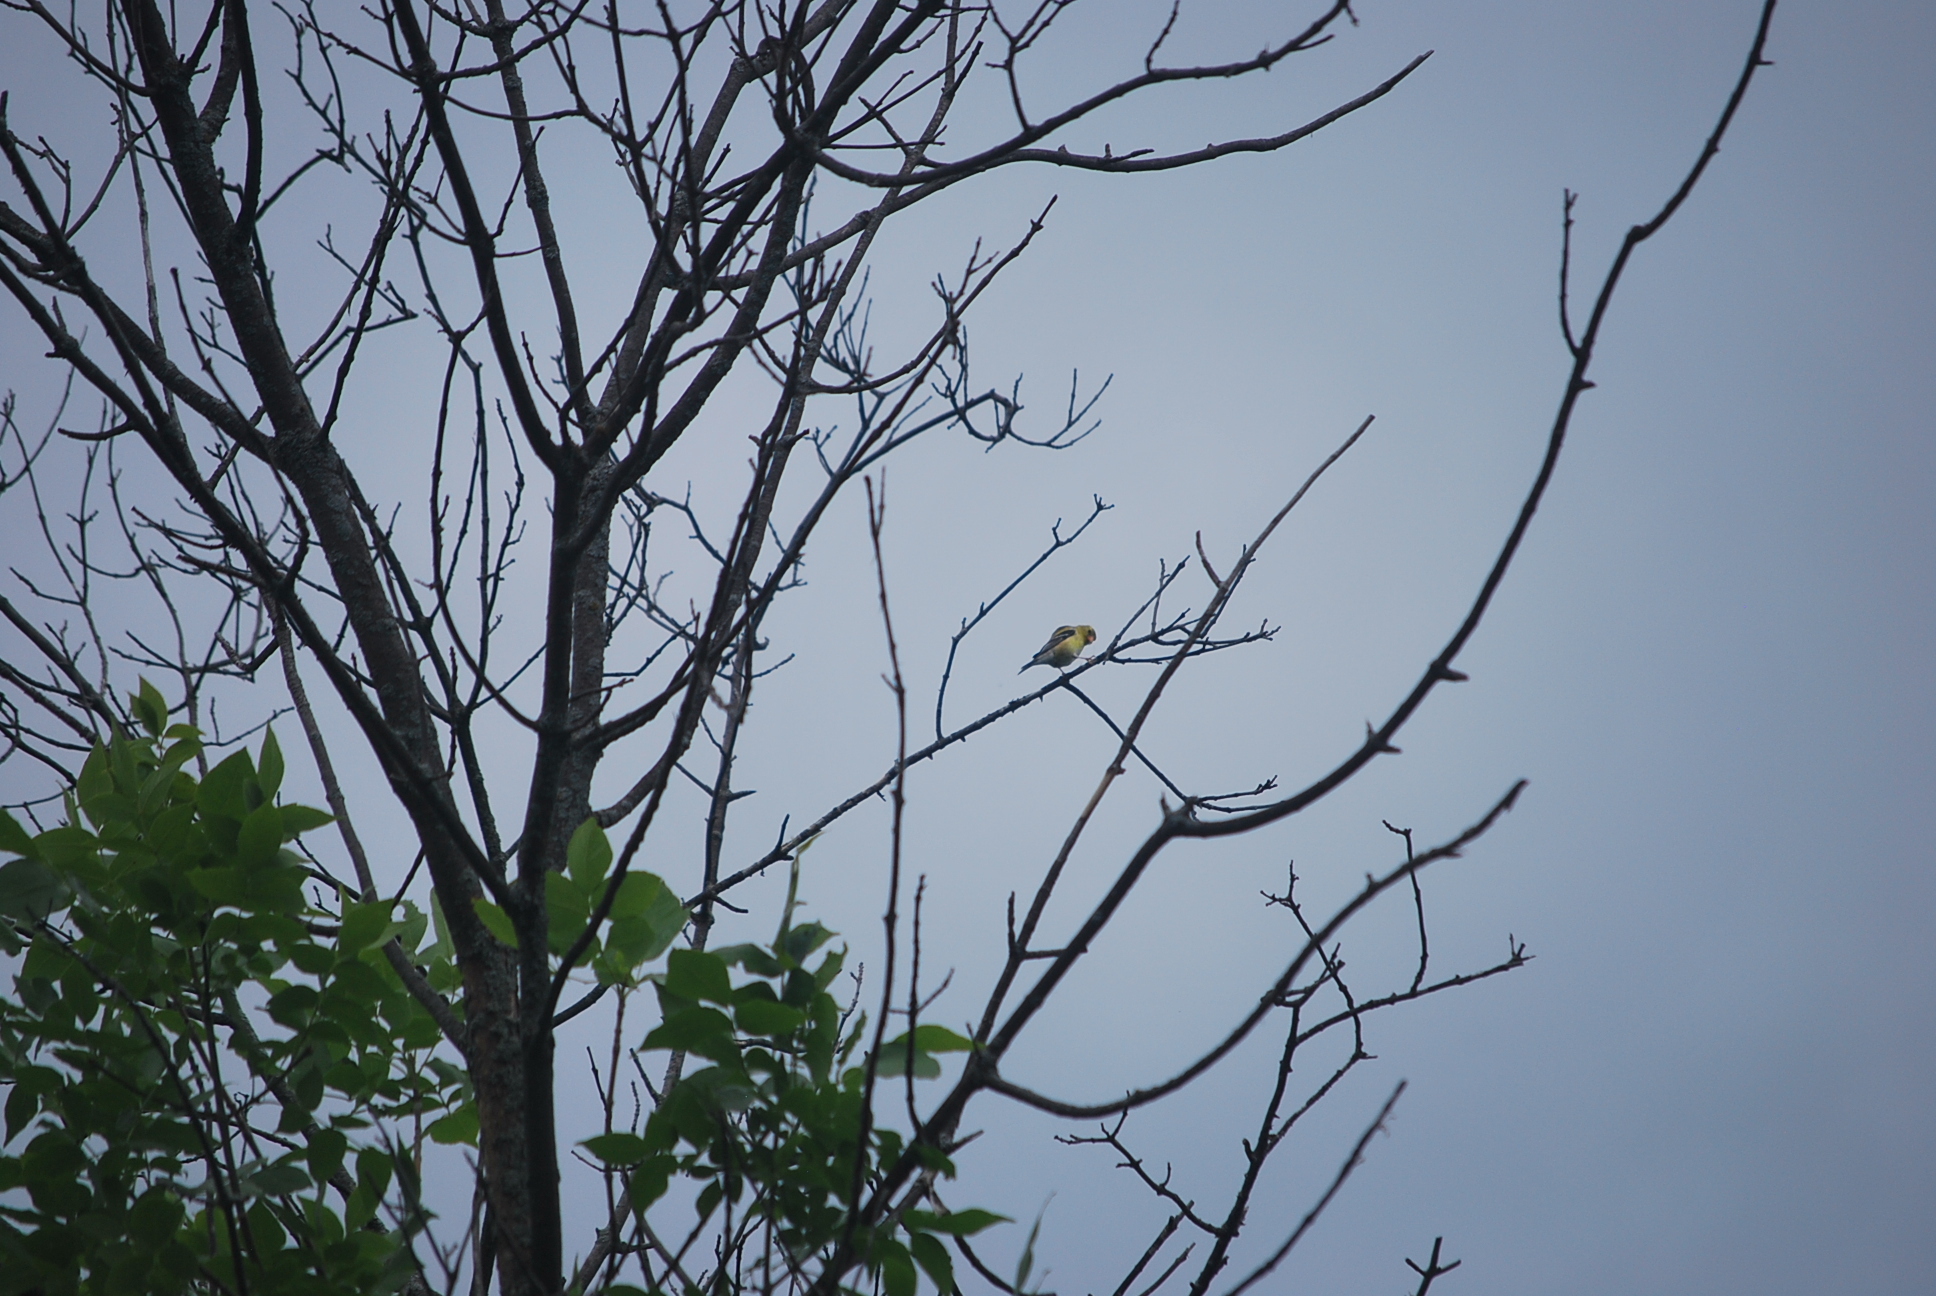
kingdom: Animalia
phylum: Chordata
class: Aves
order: Passeriformes
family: Fringillidae
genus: Spinus
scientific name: Spinus tristis
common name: American goldfinch
